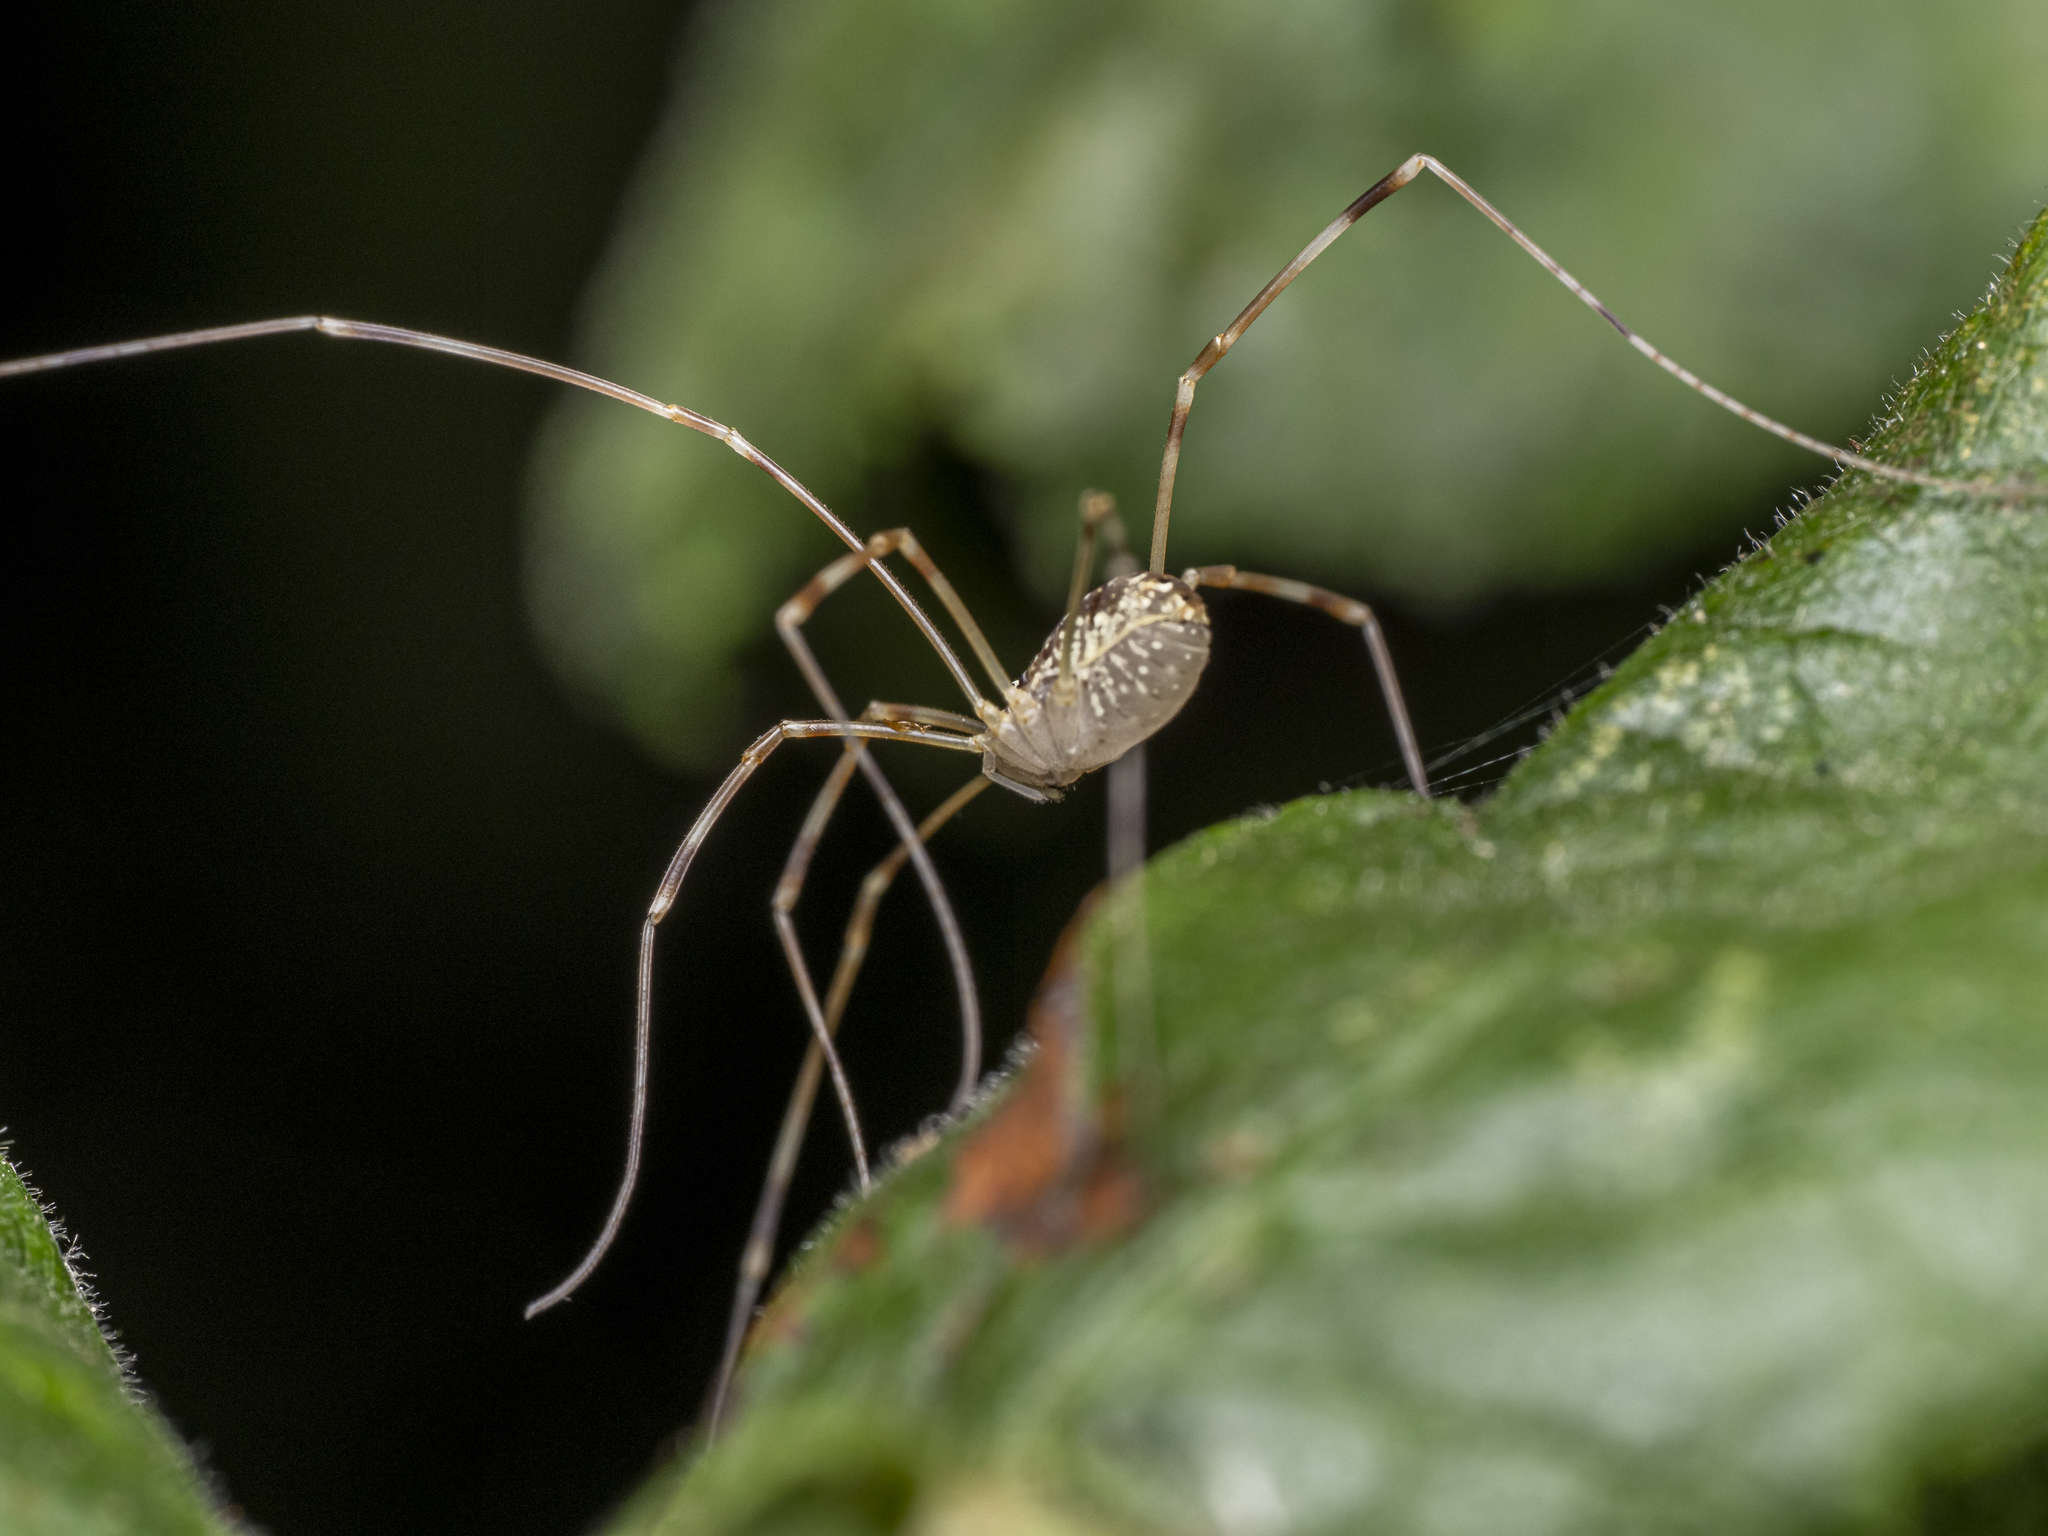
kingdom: Animalia
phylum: Arthropoda
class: Arachnida
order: Opiliones
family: Phalangiidae
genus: Opilio
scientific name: Opilio canestrinii
